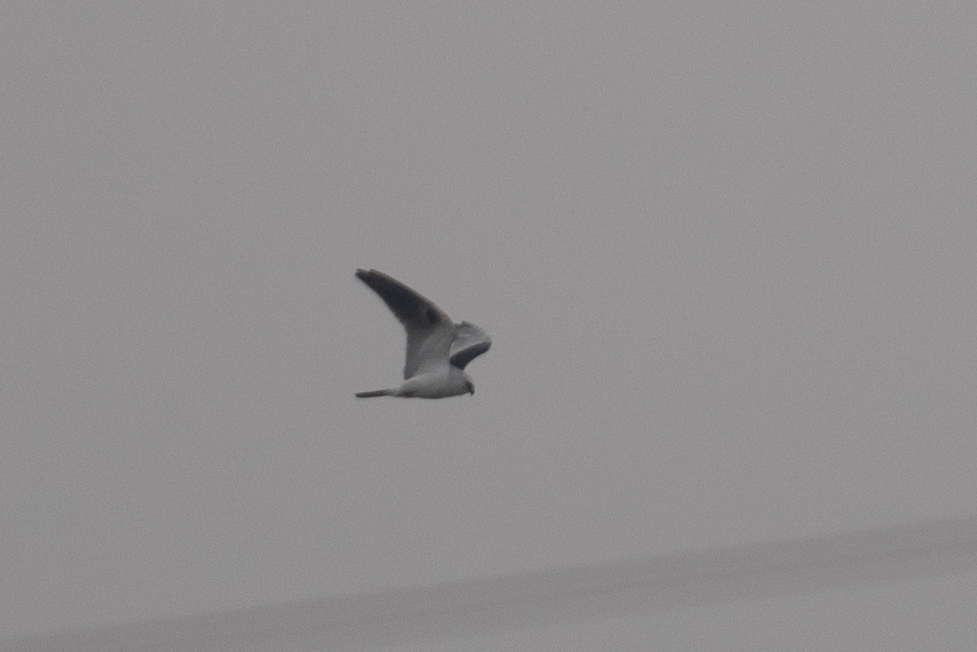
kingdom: Animalia
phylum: Chordata
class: Aves
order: Accipitriformes
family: Accipitridae
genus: Elanus
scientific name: Elanus leucurus
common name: White-tailed kite
